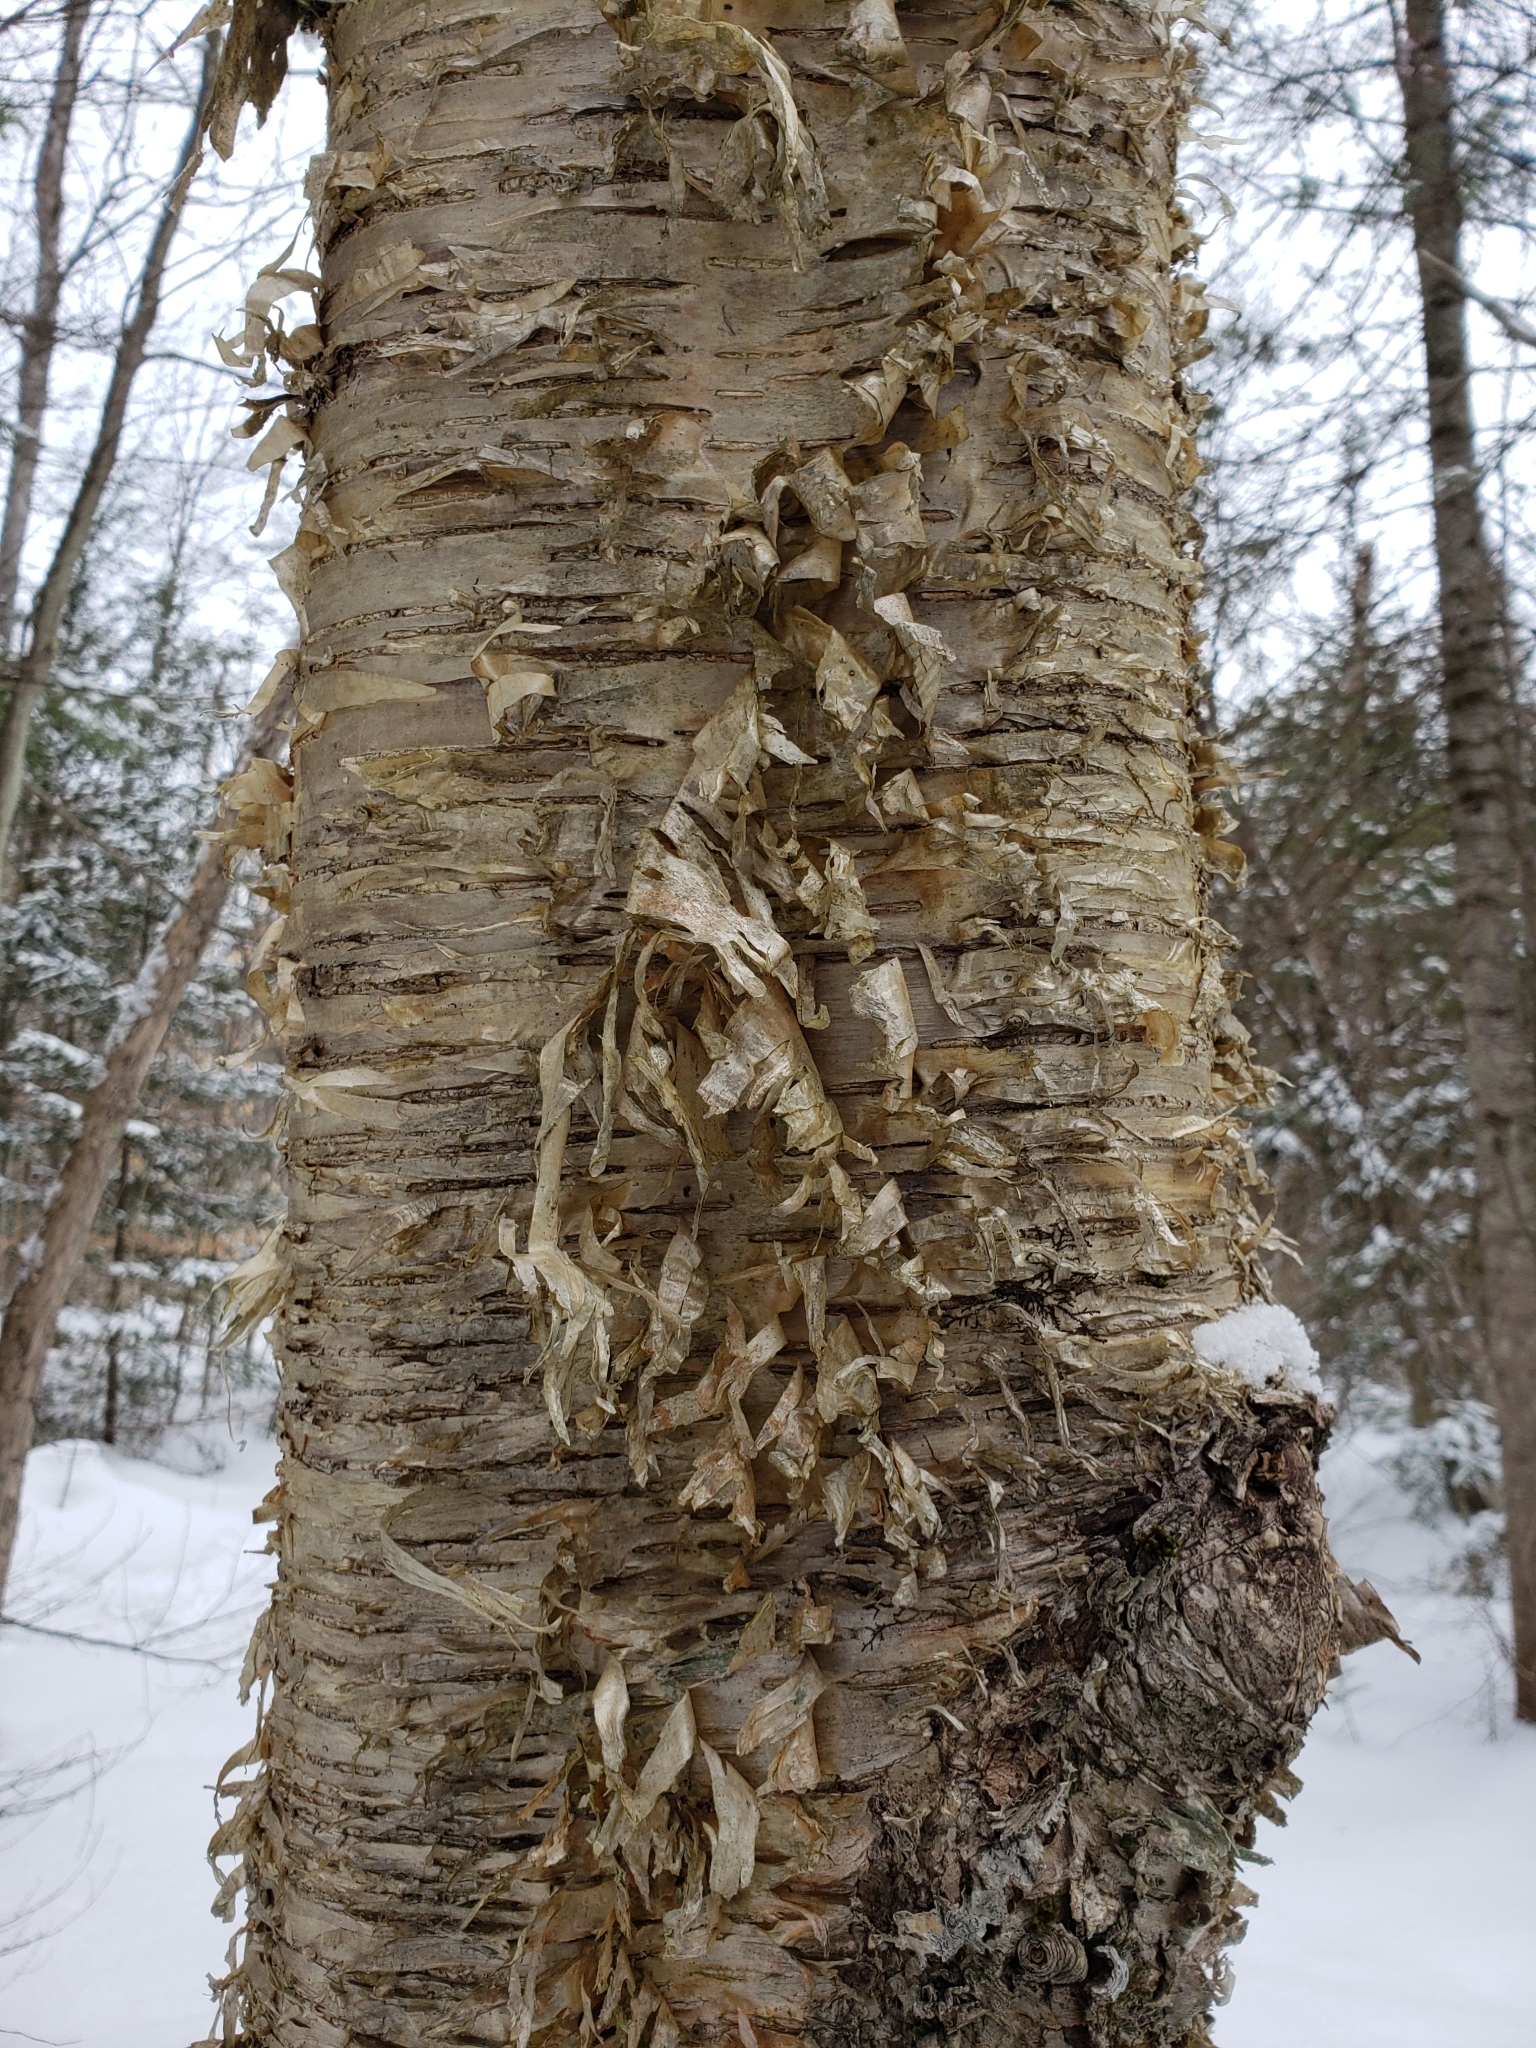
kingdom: Plantae
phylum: Tracheophyta
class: Magnoliopsida
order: Fagales
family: Betulaceae
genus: Betula
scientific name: Betula alleghaniensis
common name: Yellow birch
